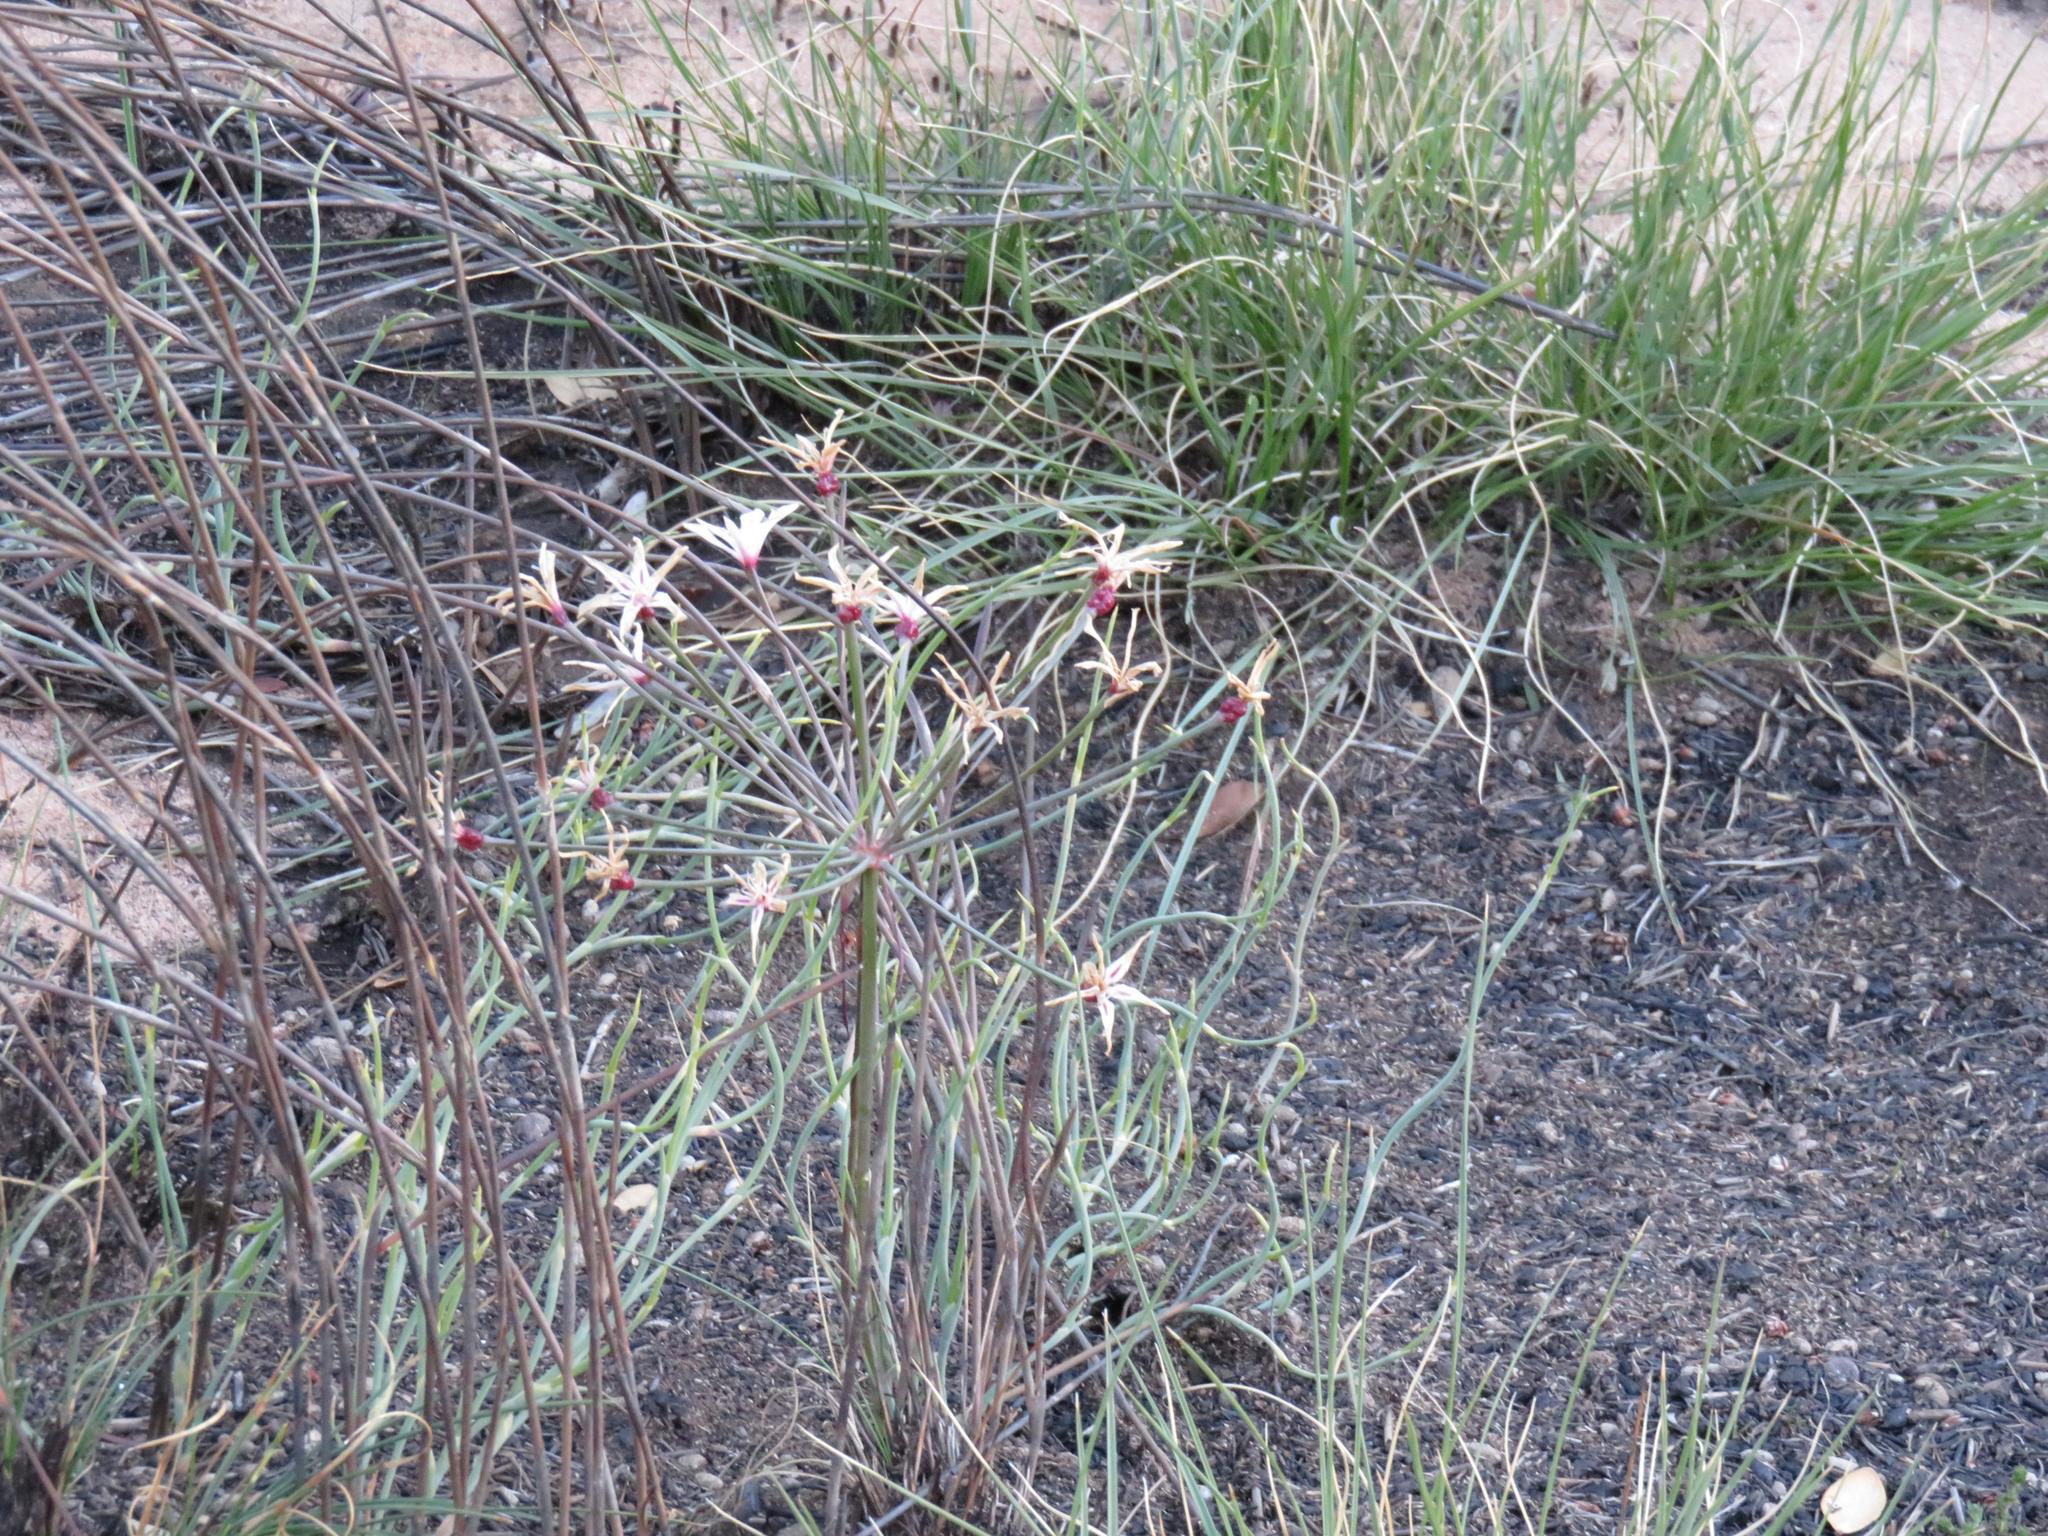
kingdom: Plantae
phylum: Tracheophyta
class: Liliopsida
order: Asparagales
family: Amaryllidaceae
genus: Hessea
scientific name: Hessea monticola
